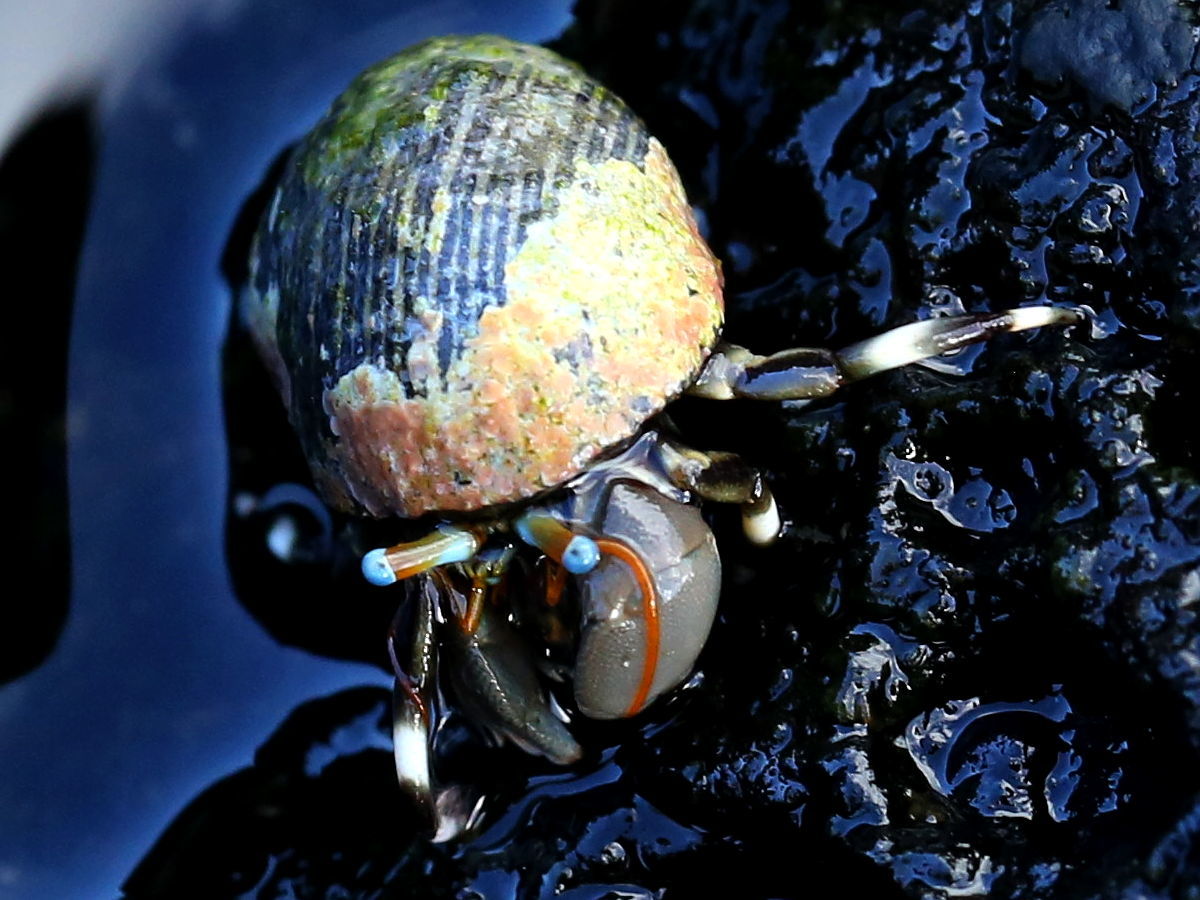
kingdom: Animalia
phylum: Arthropoda
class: Malacostraca
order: Decapoda
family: Diogenidae
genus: Calcinus
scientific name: Calcinus seurati
